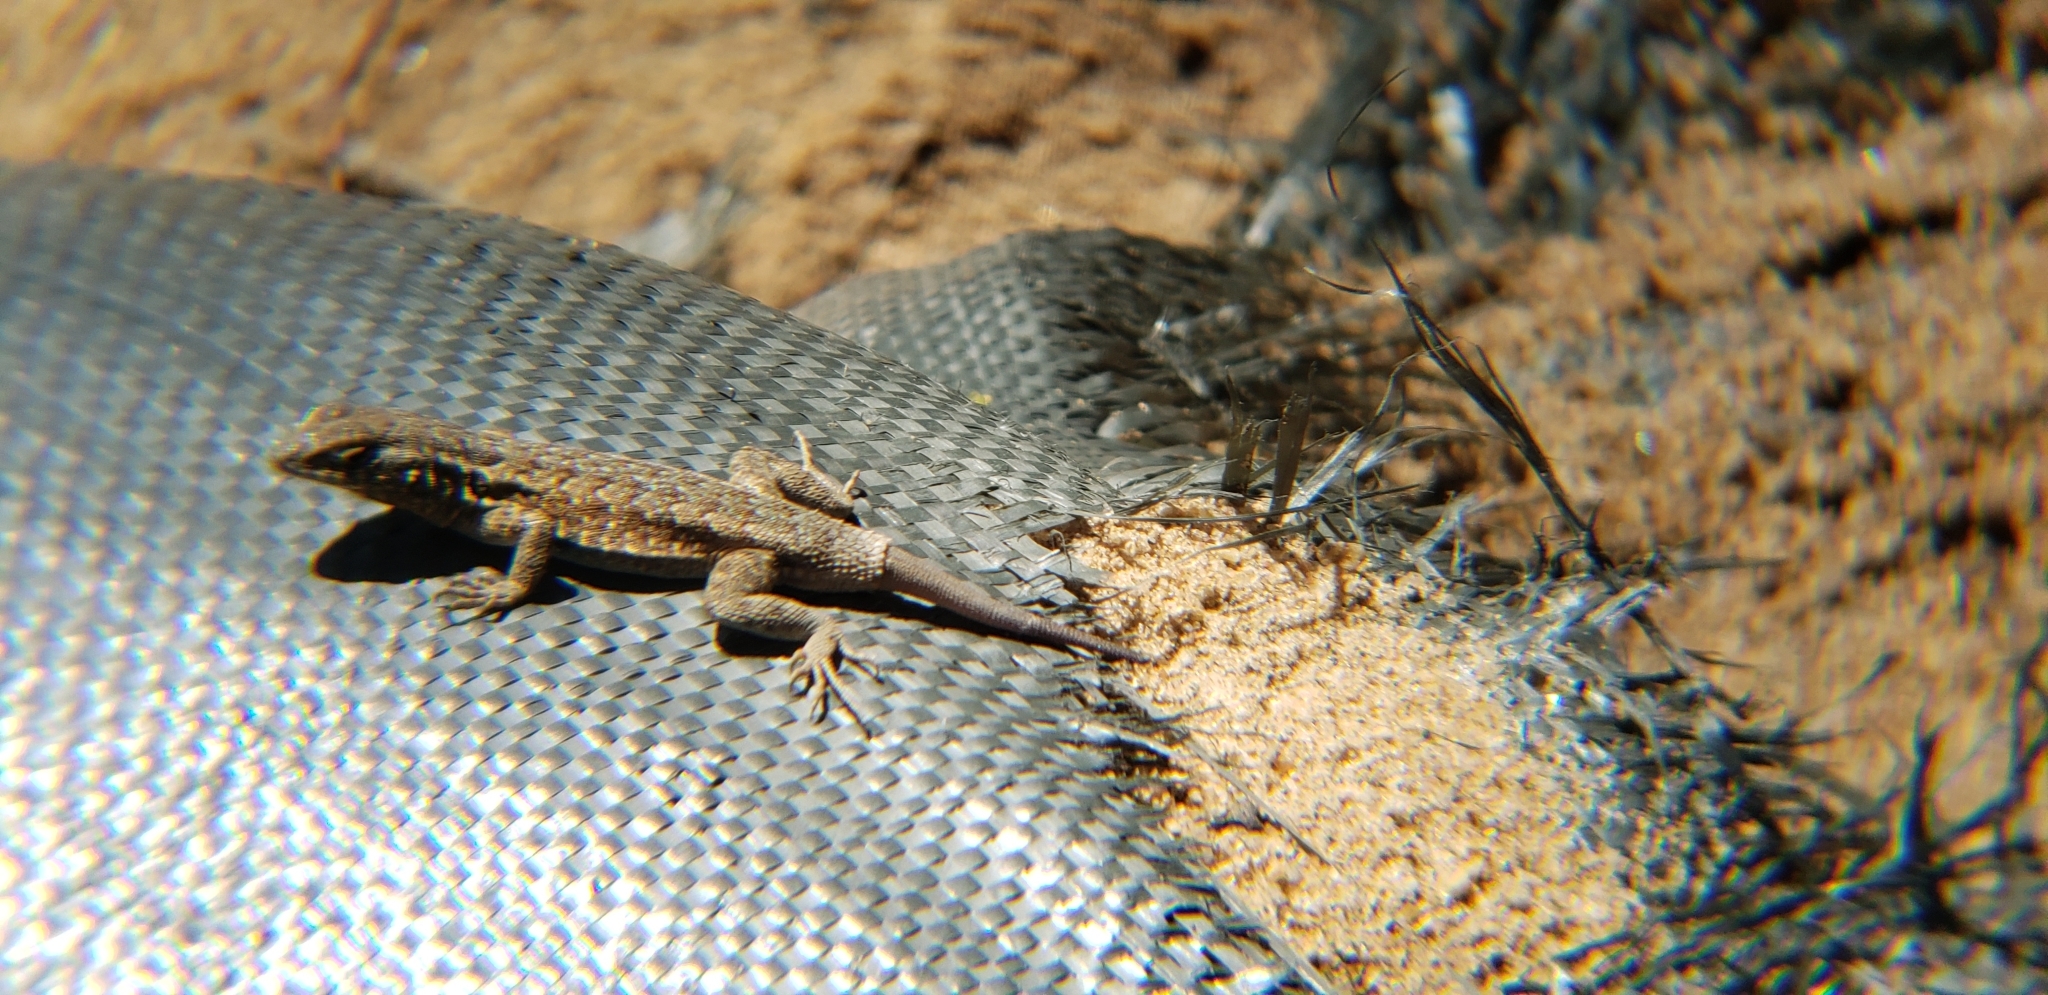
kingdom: Animalia
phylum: Chordata
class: Squamata
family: Phrynosomatidae
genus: Sceloporus
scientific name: Sceloporus occidentalis
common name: Western fence lizard
